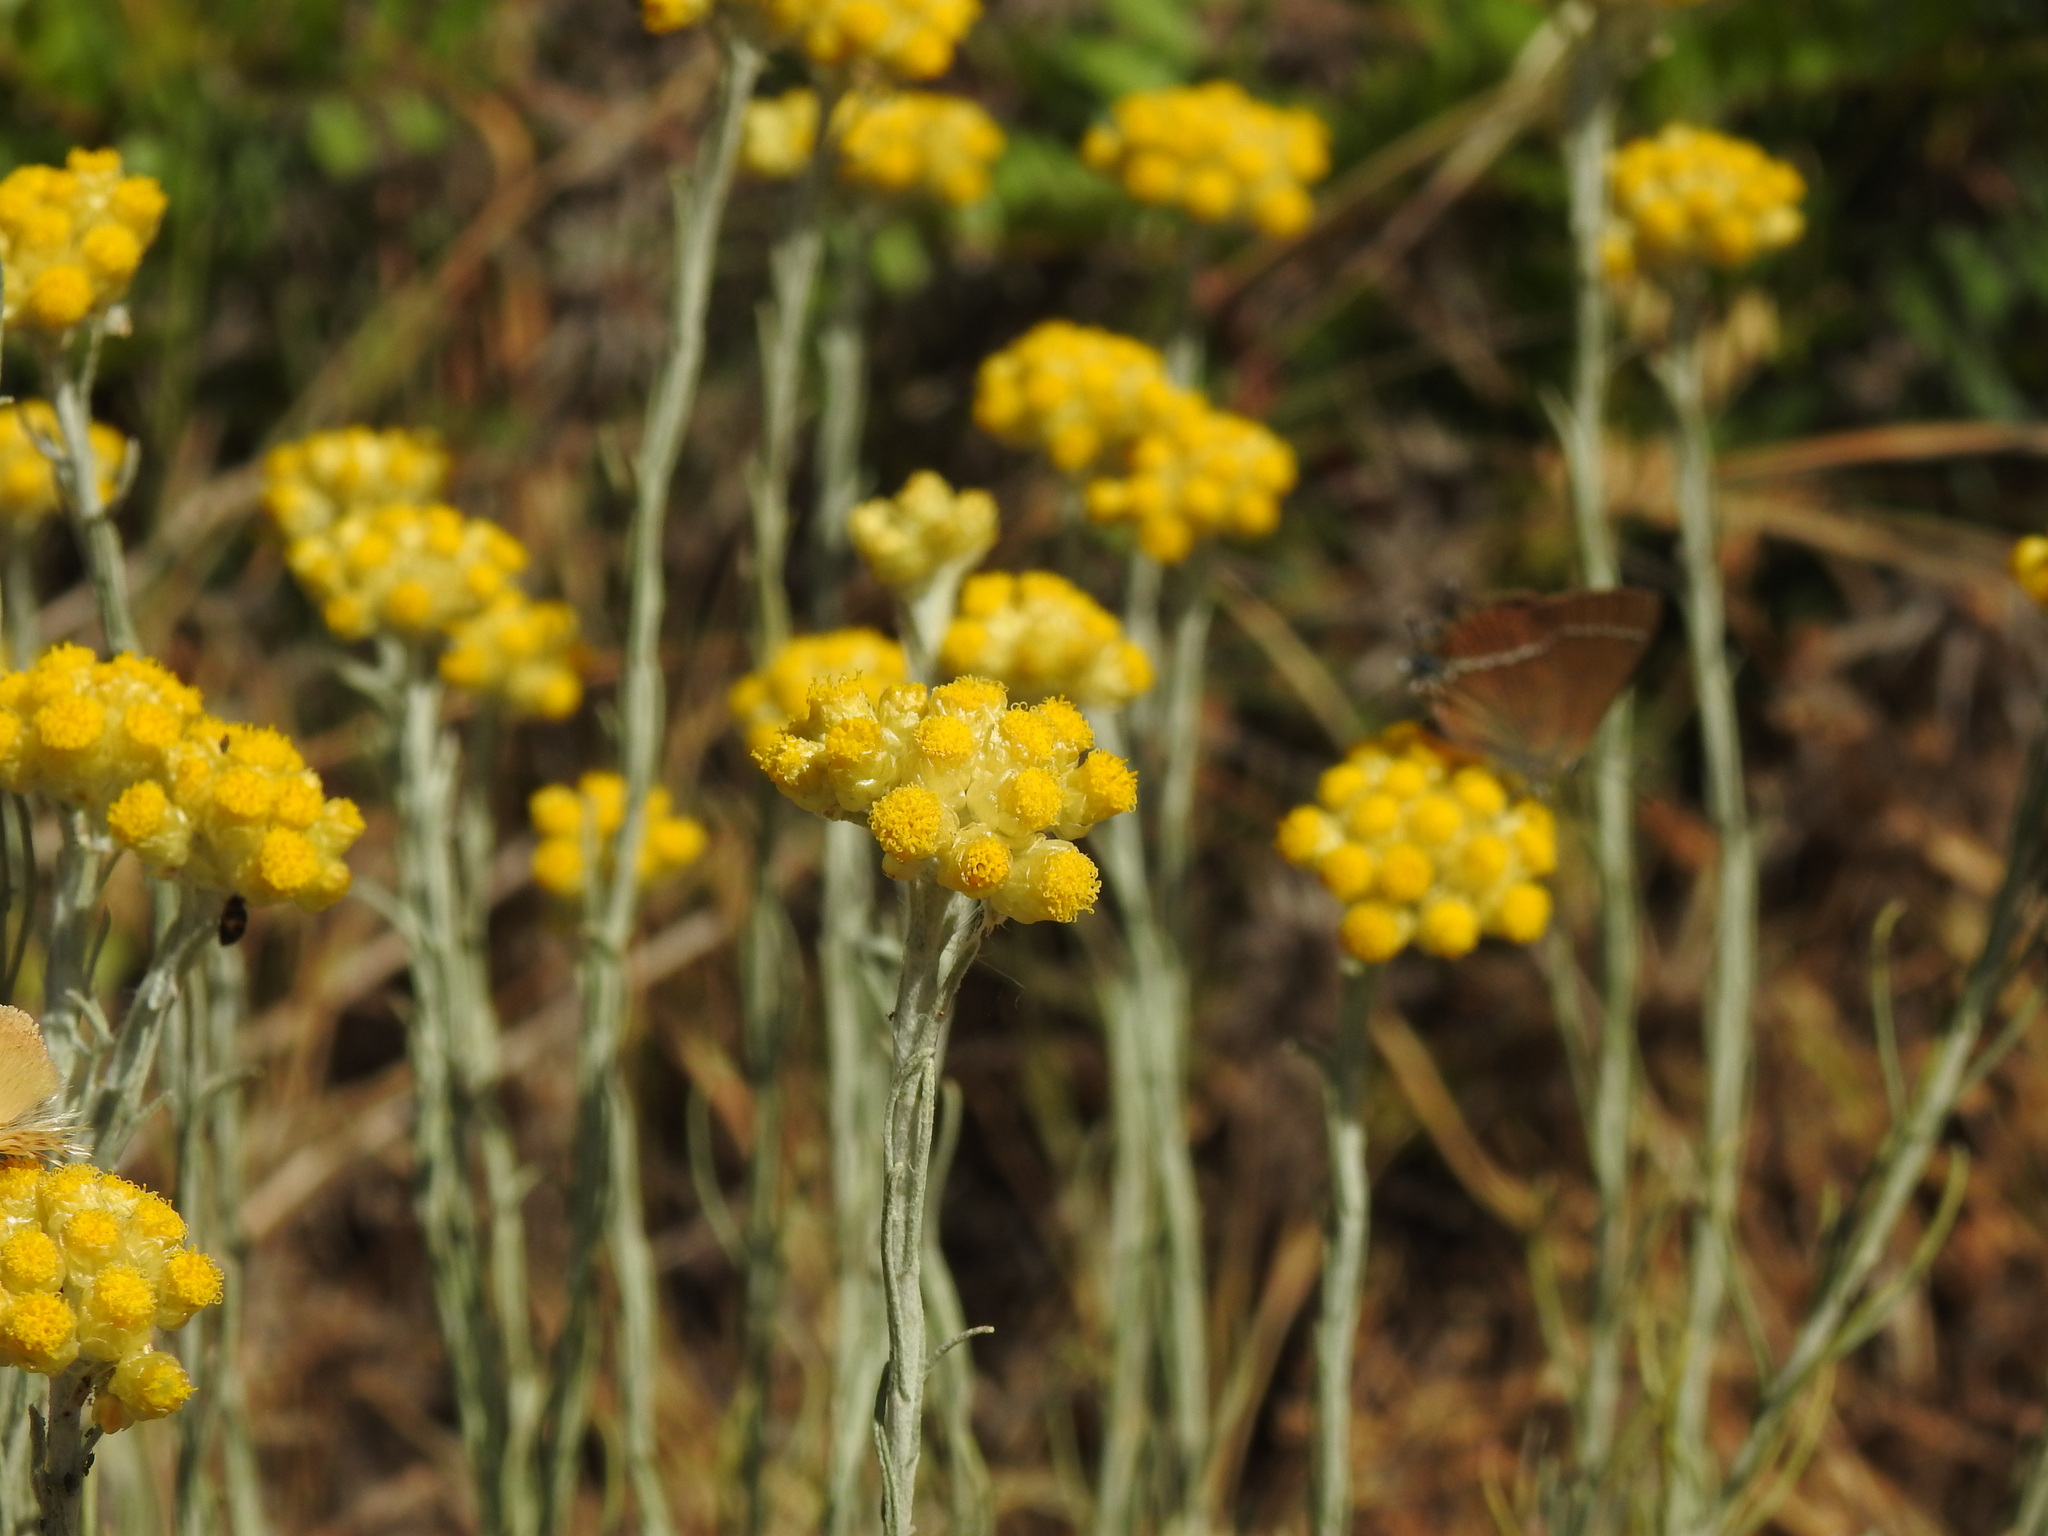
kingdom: Plantae
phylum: Tracheophyta
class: Magnoliopsida
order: Asterales
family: Asteraceae
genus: Helichrysum
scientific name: Helichrysum stoechas
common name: Goldilocks
